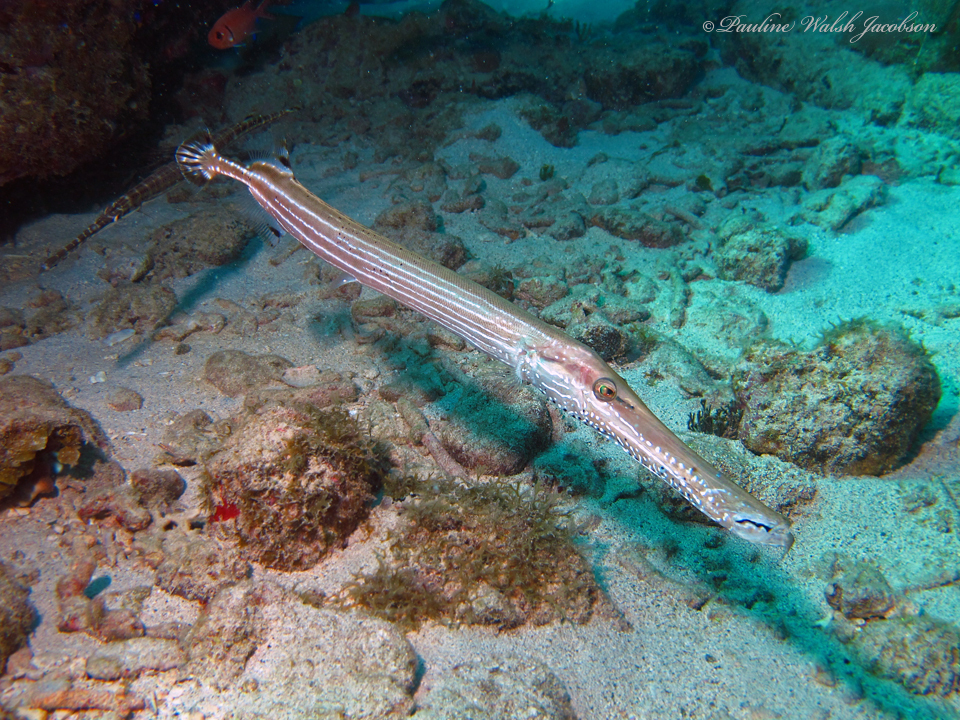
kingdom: Animalia
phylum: Chordata
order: Syngnathiformes
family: Aulostomidae
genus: Aulostomus
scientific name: Aulostomus maculatus
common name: West atlantic trumpetfish
